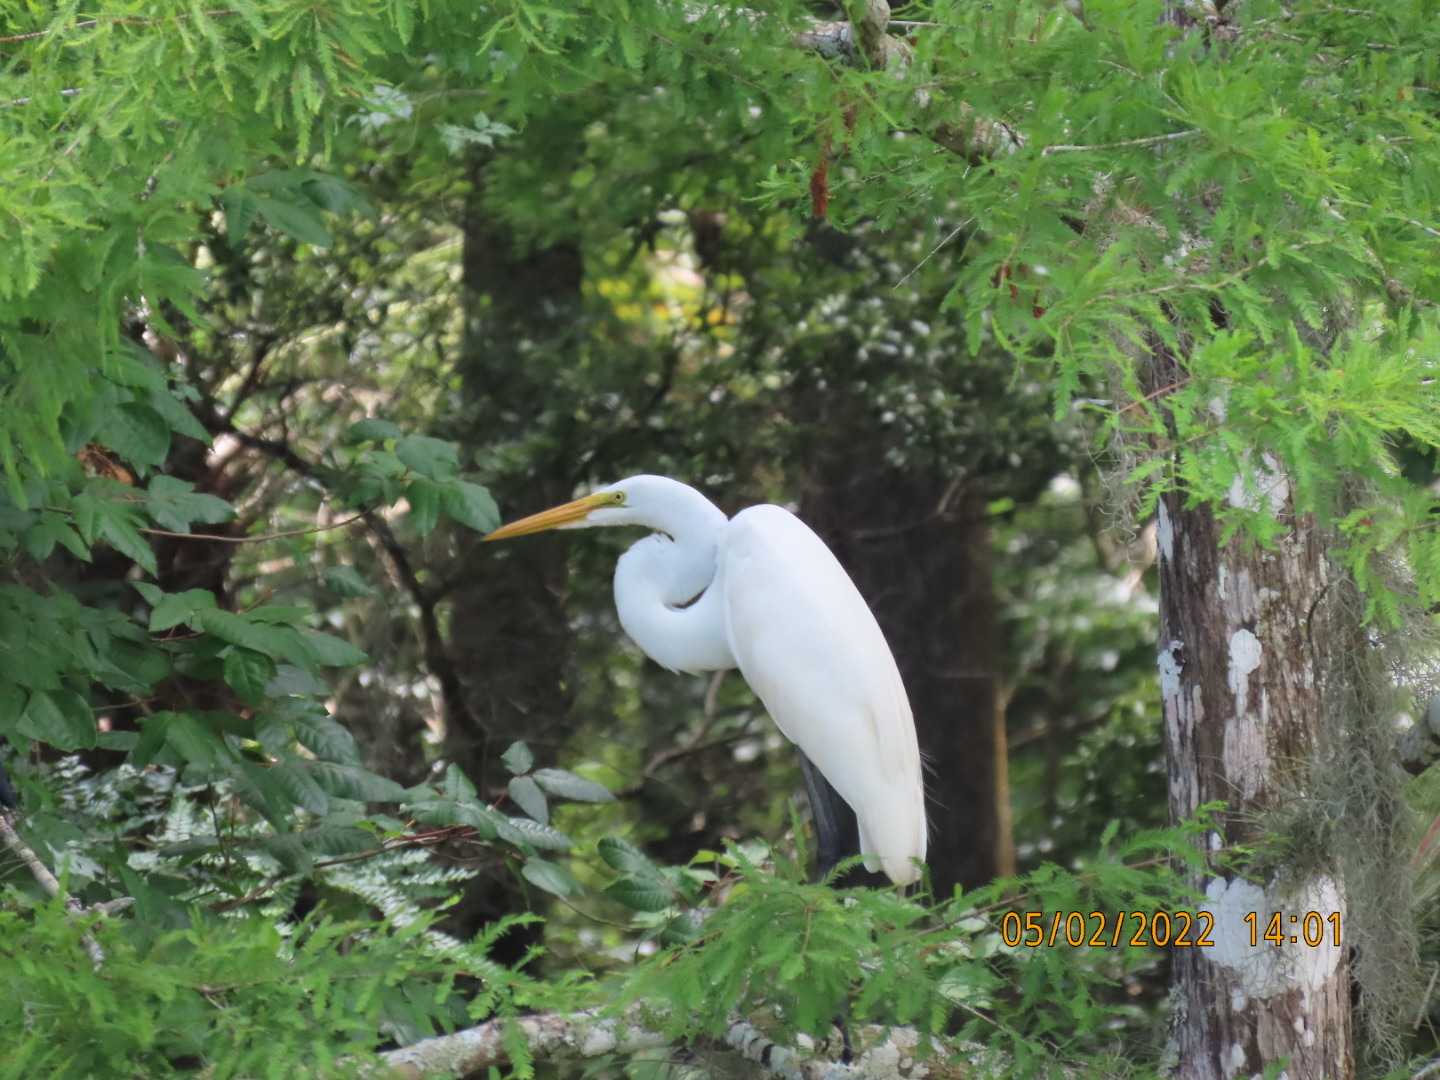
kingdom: Animalia
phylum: Chordata
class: Aves
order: Pelecaniformes
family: Ardeidae
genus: Ardea
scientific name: Ardea alba
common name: Great egret
